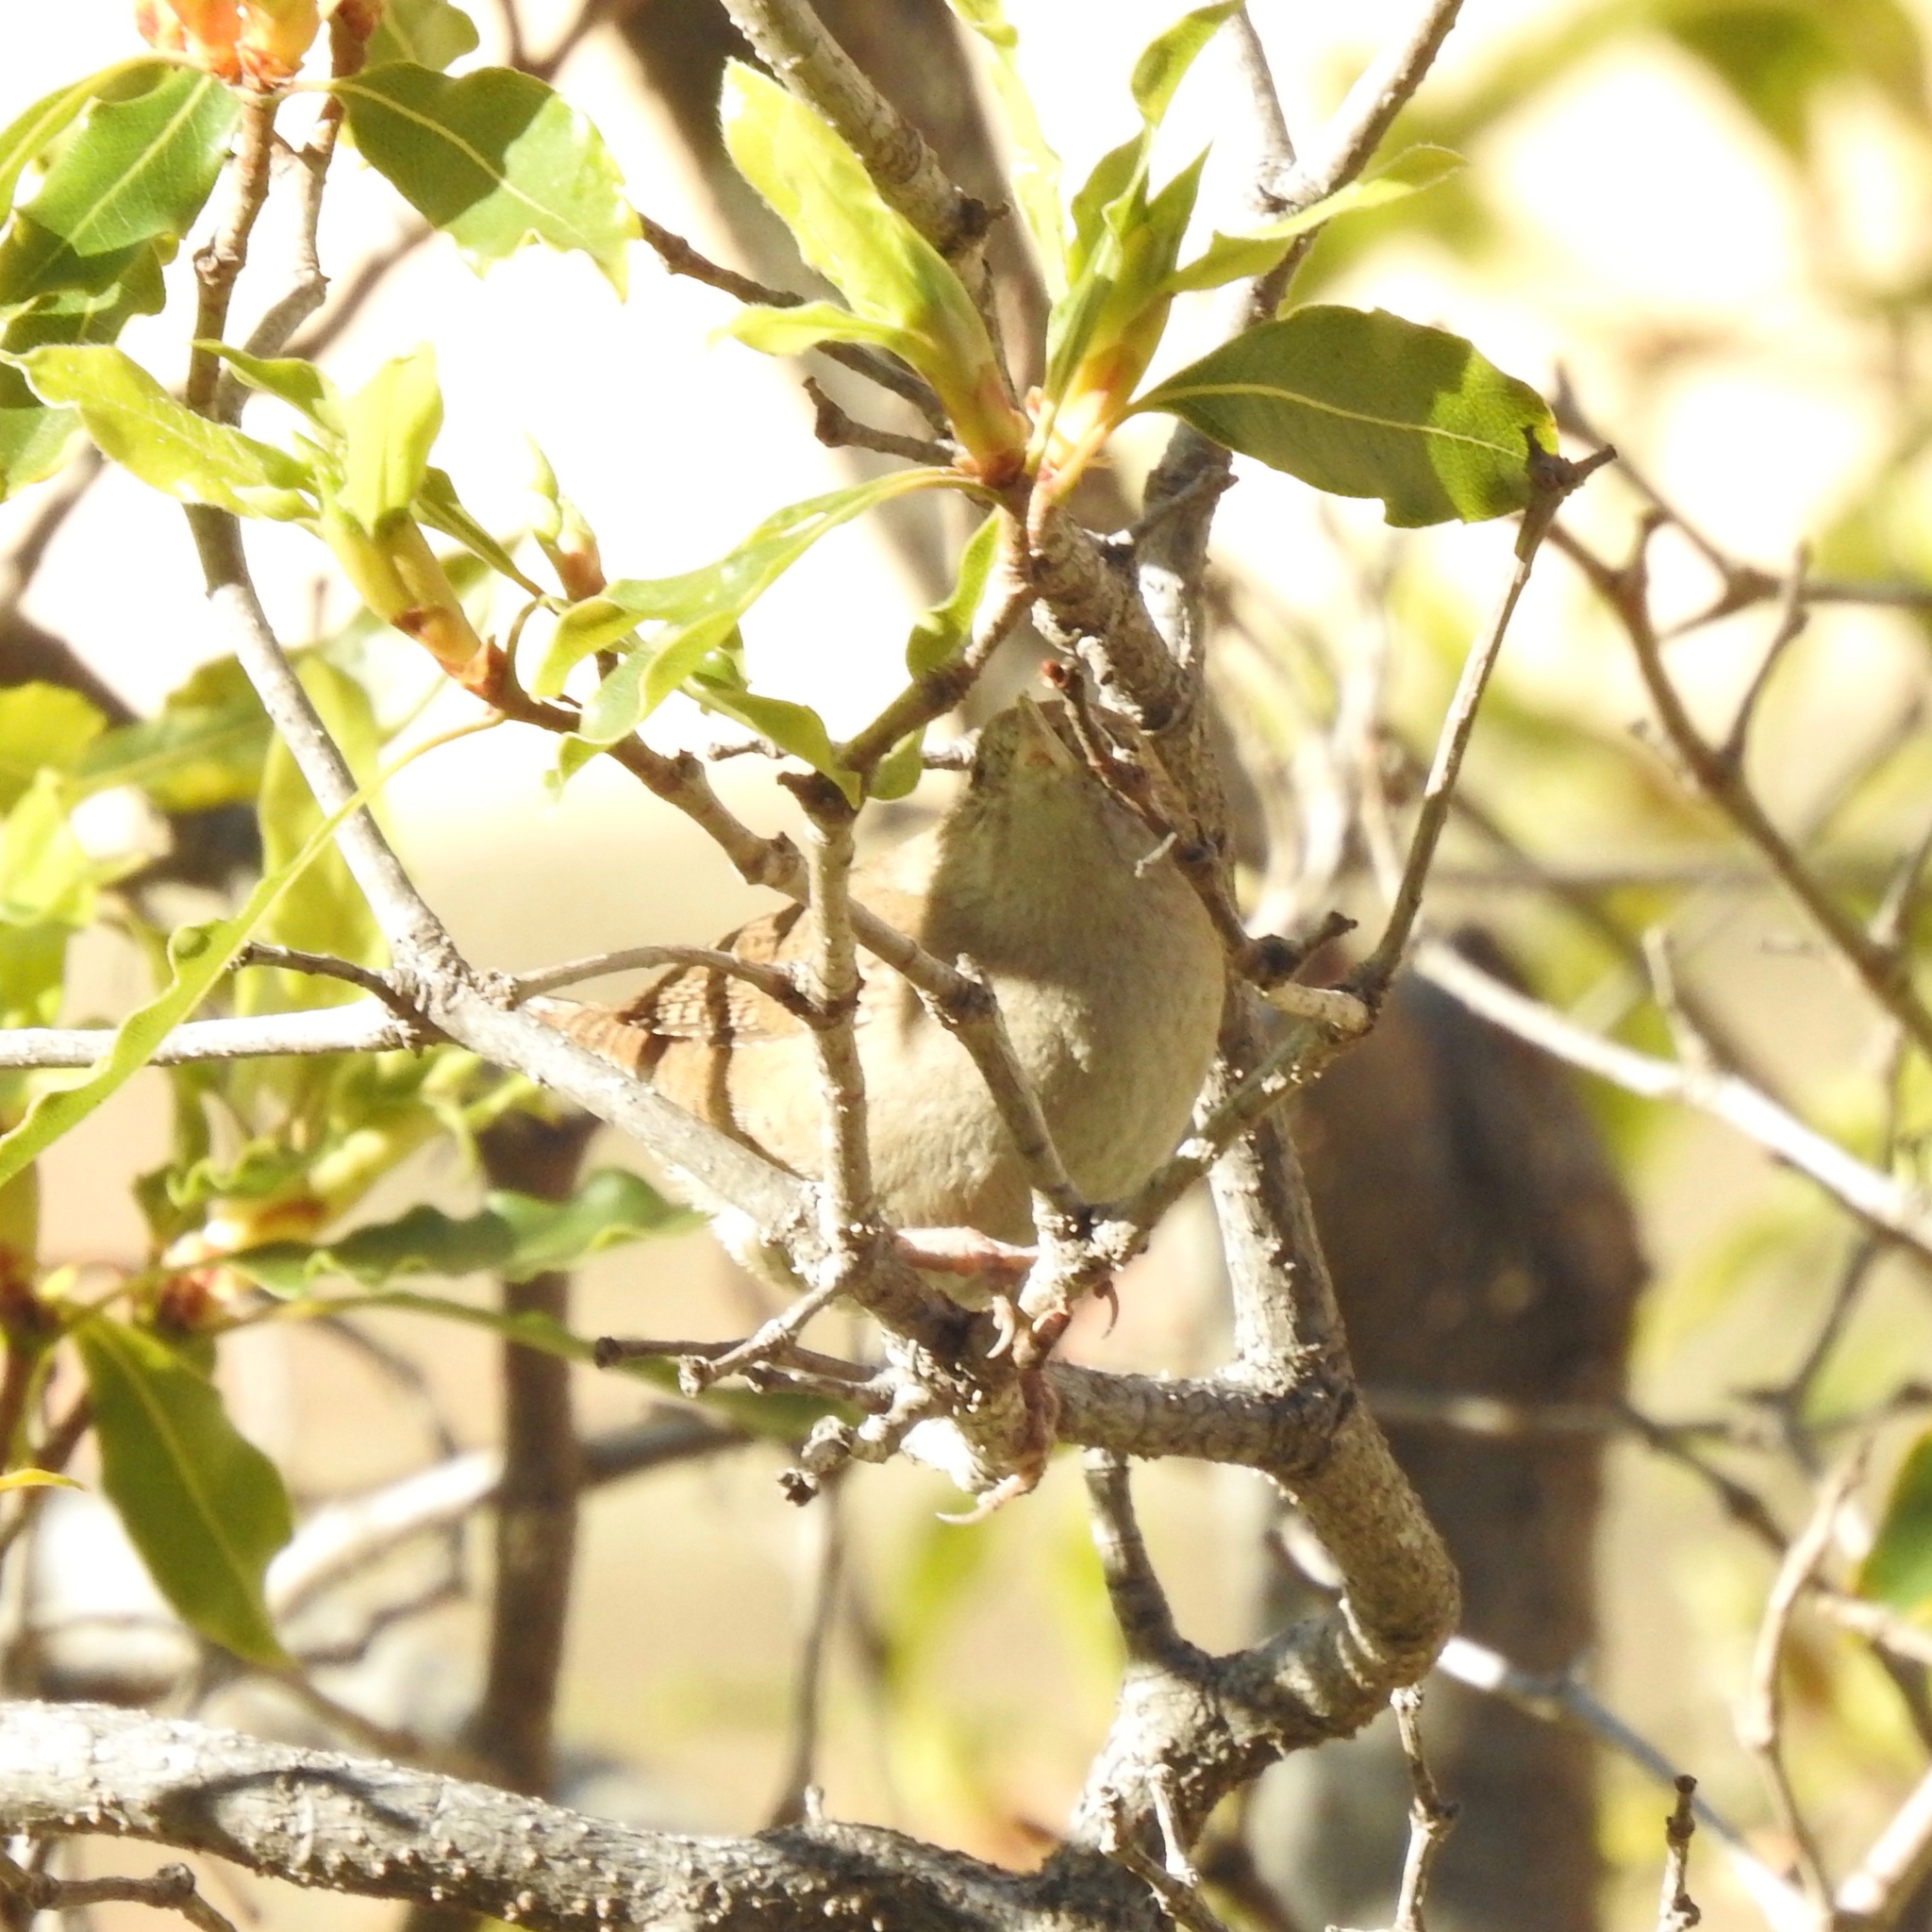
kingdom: Animalia
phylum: Chordata
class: Aves
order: Passeriformes
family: Troglodytidae
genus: Troglodytes
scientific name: Troglodytes aedon
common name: House wren
